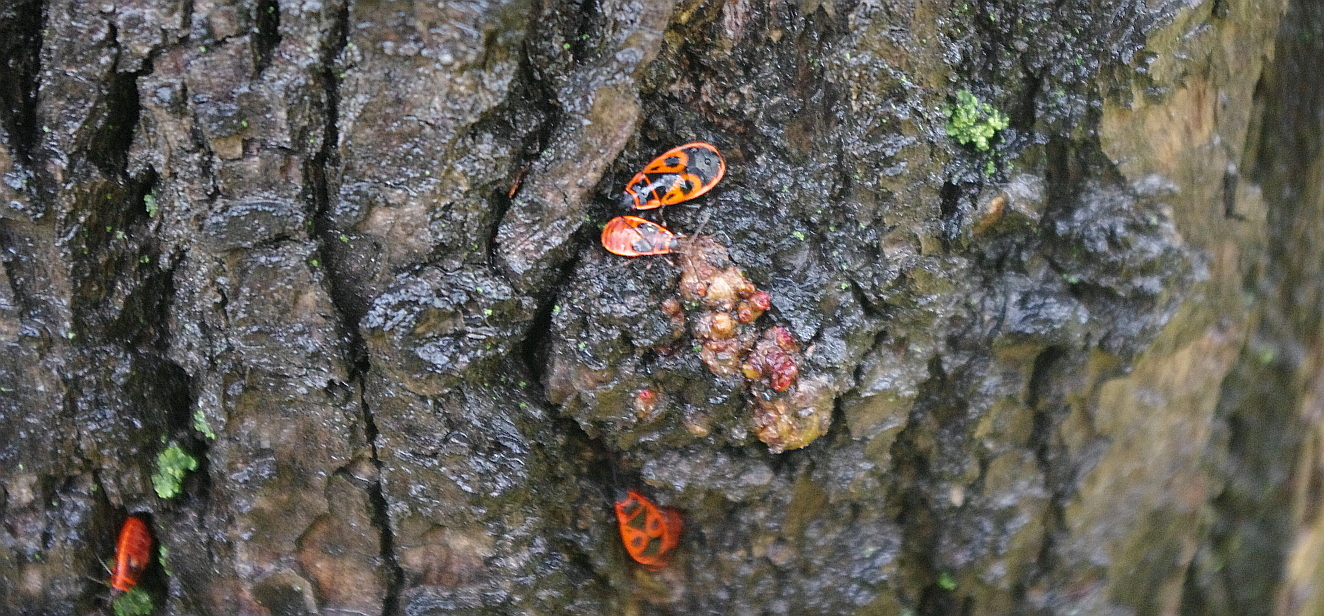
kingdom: Animalia
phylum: Arthropoda
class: Insecta
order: Hemiptera
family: Pyrrhocoridae
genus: Pyrrhocoris
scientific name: Pyrrhocoris apterus
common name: Firebug
